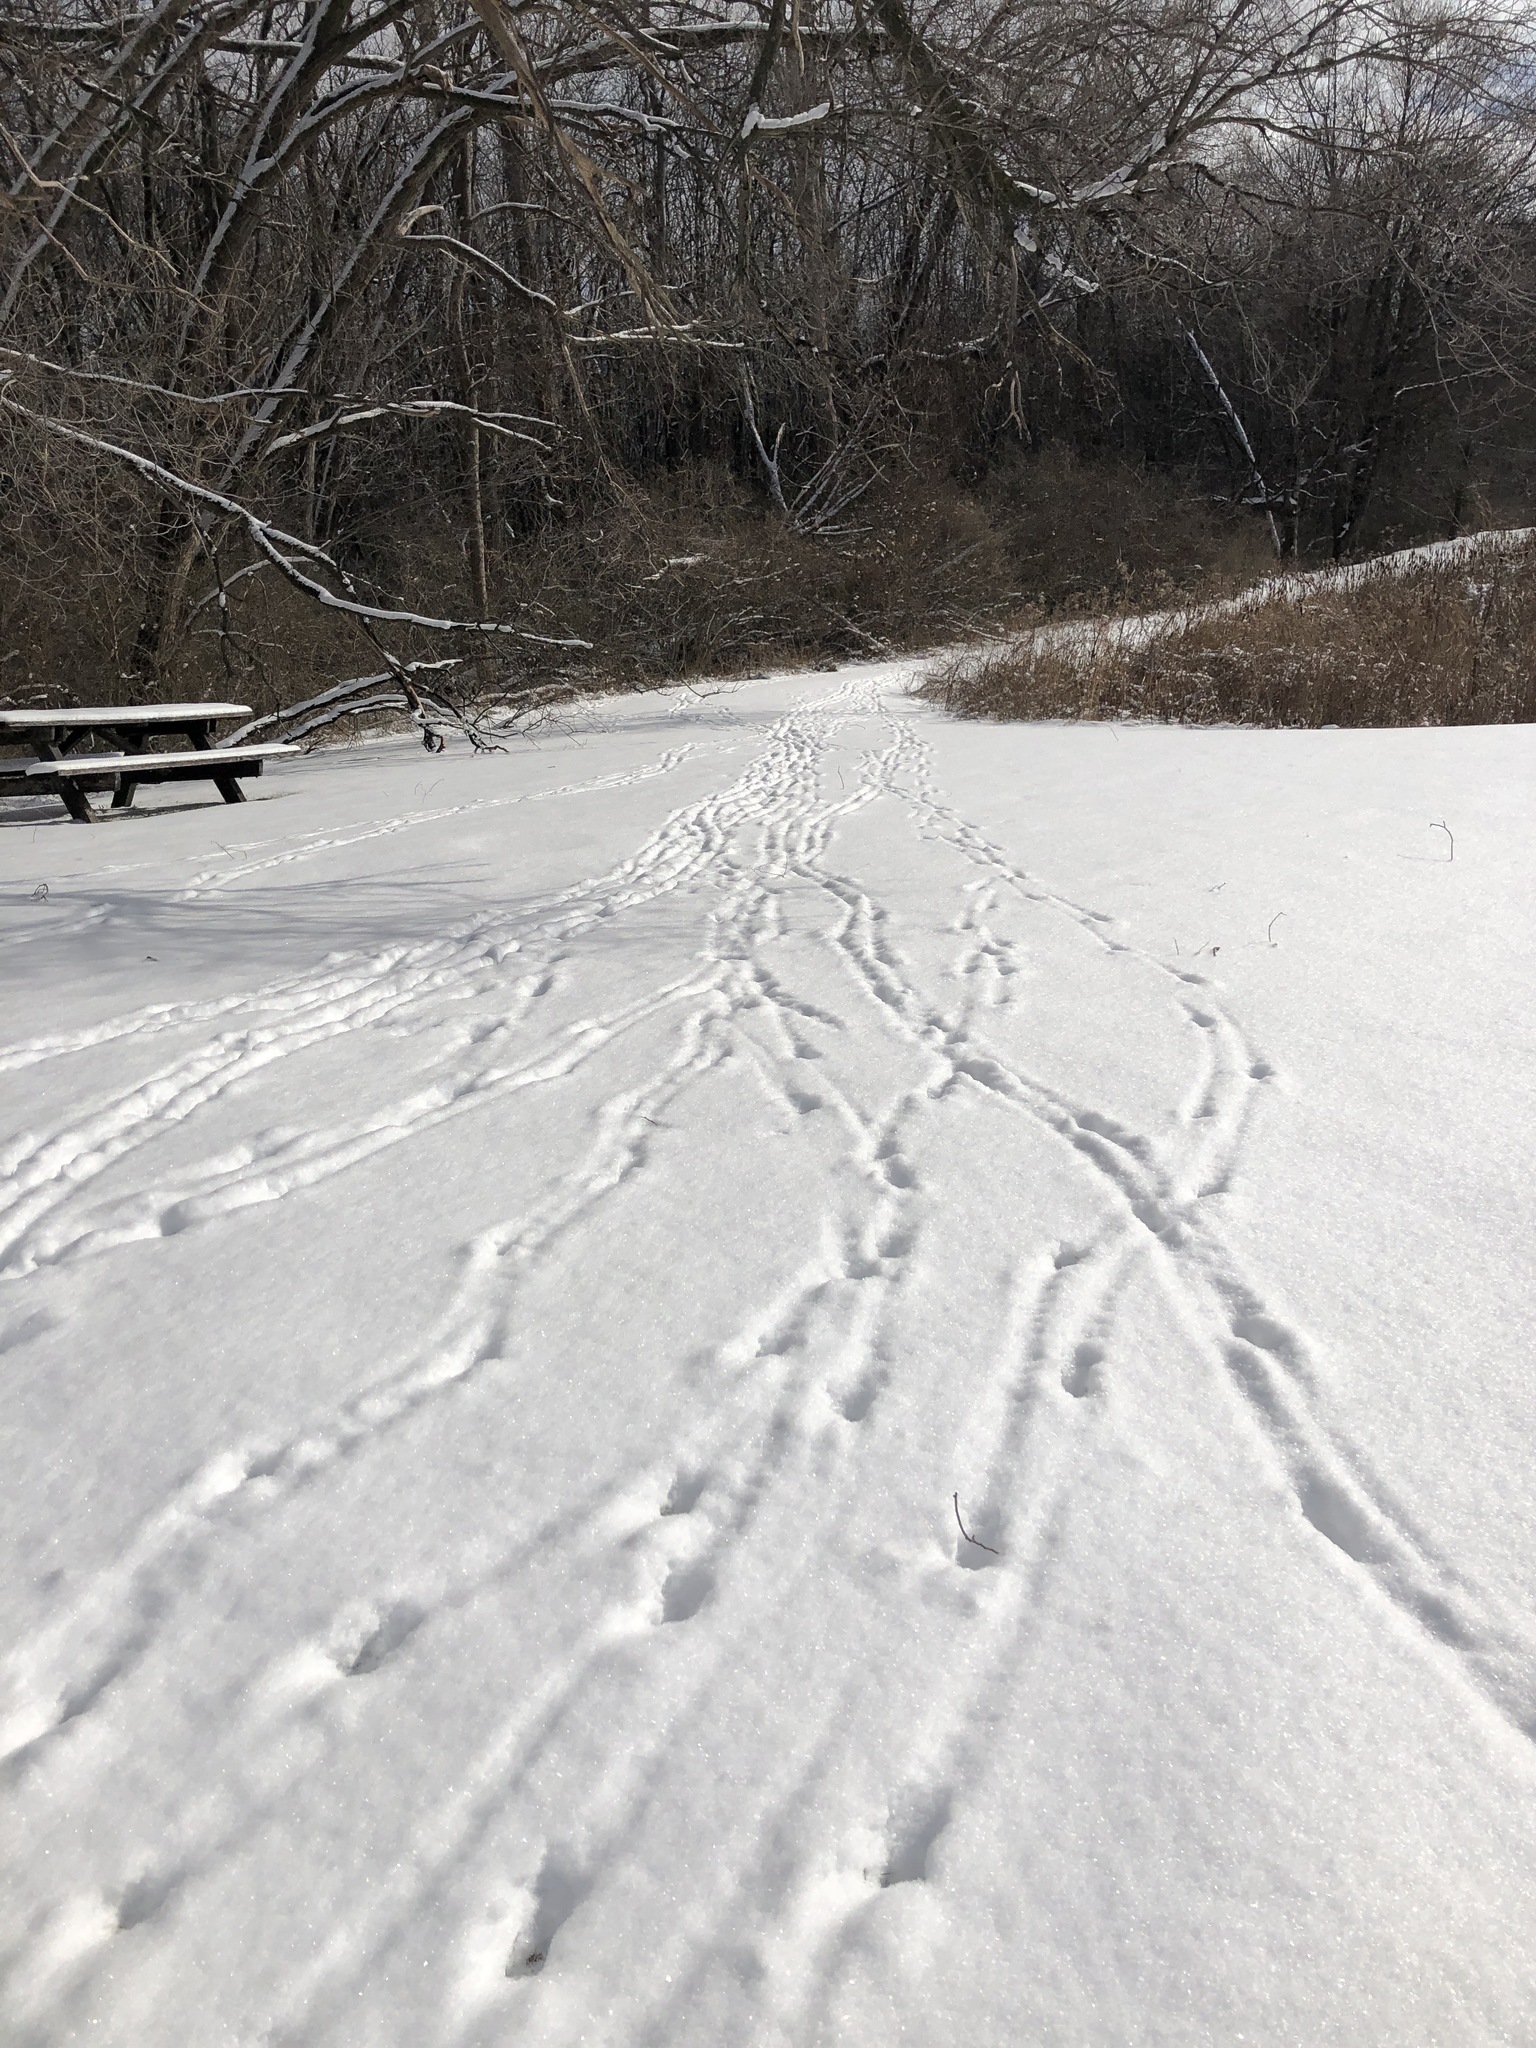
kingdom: Animalia
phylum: Chordata
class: Mammalia
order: Artiodactyla
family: Cervidae
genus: Odocoileus
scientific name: Odocoileus virginianus
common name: White-tailed deer
